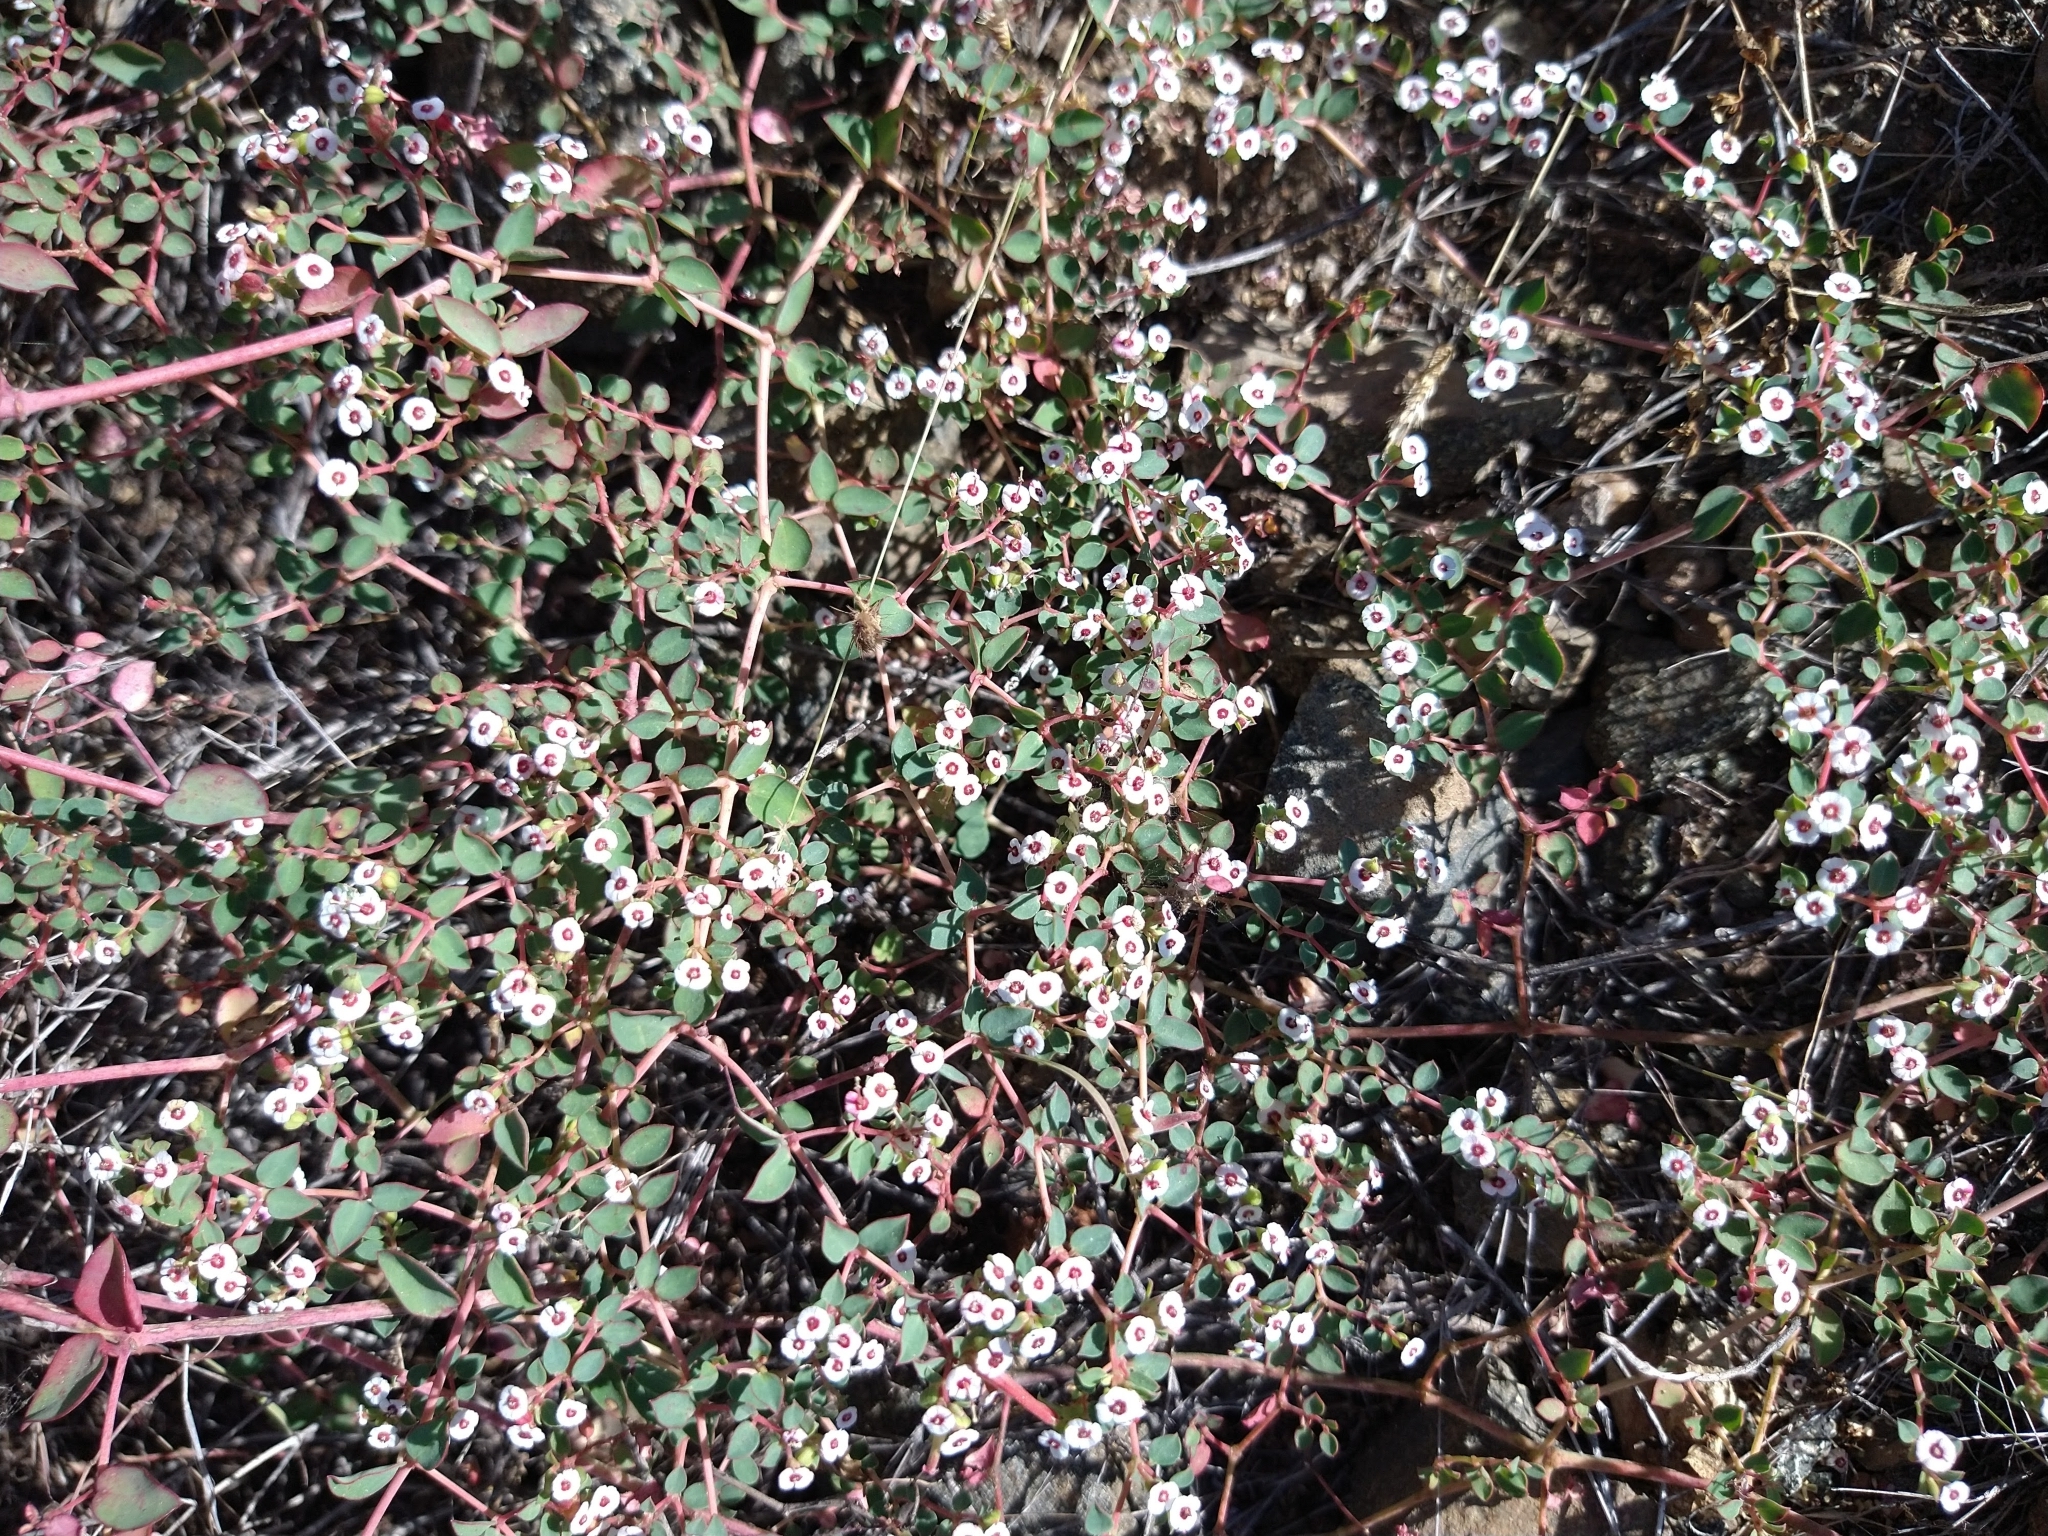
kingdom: Plantae
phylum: Tracheophyta
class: Magnoliopsida
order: Malpighiales
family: Euphorbiaceae
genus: Euphorbia
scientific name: Euphorbia polycarpa
